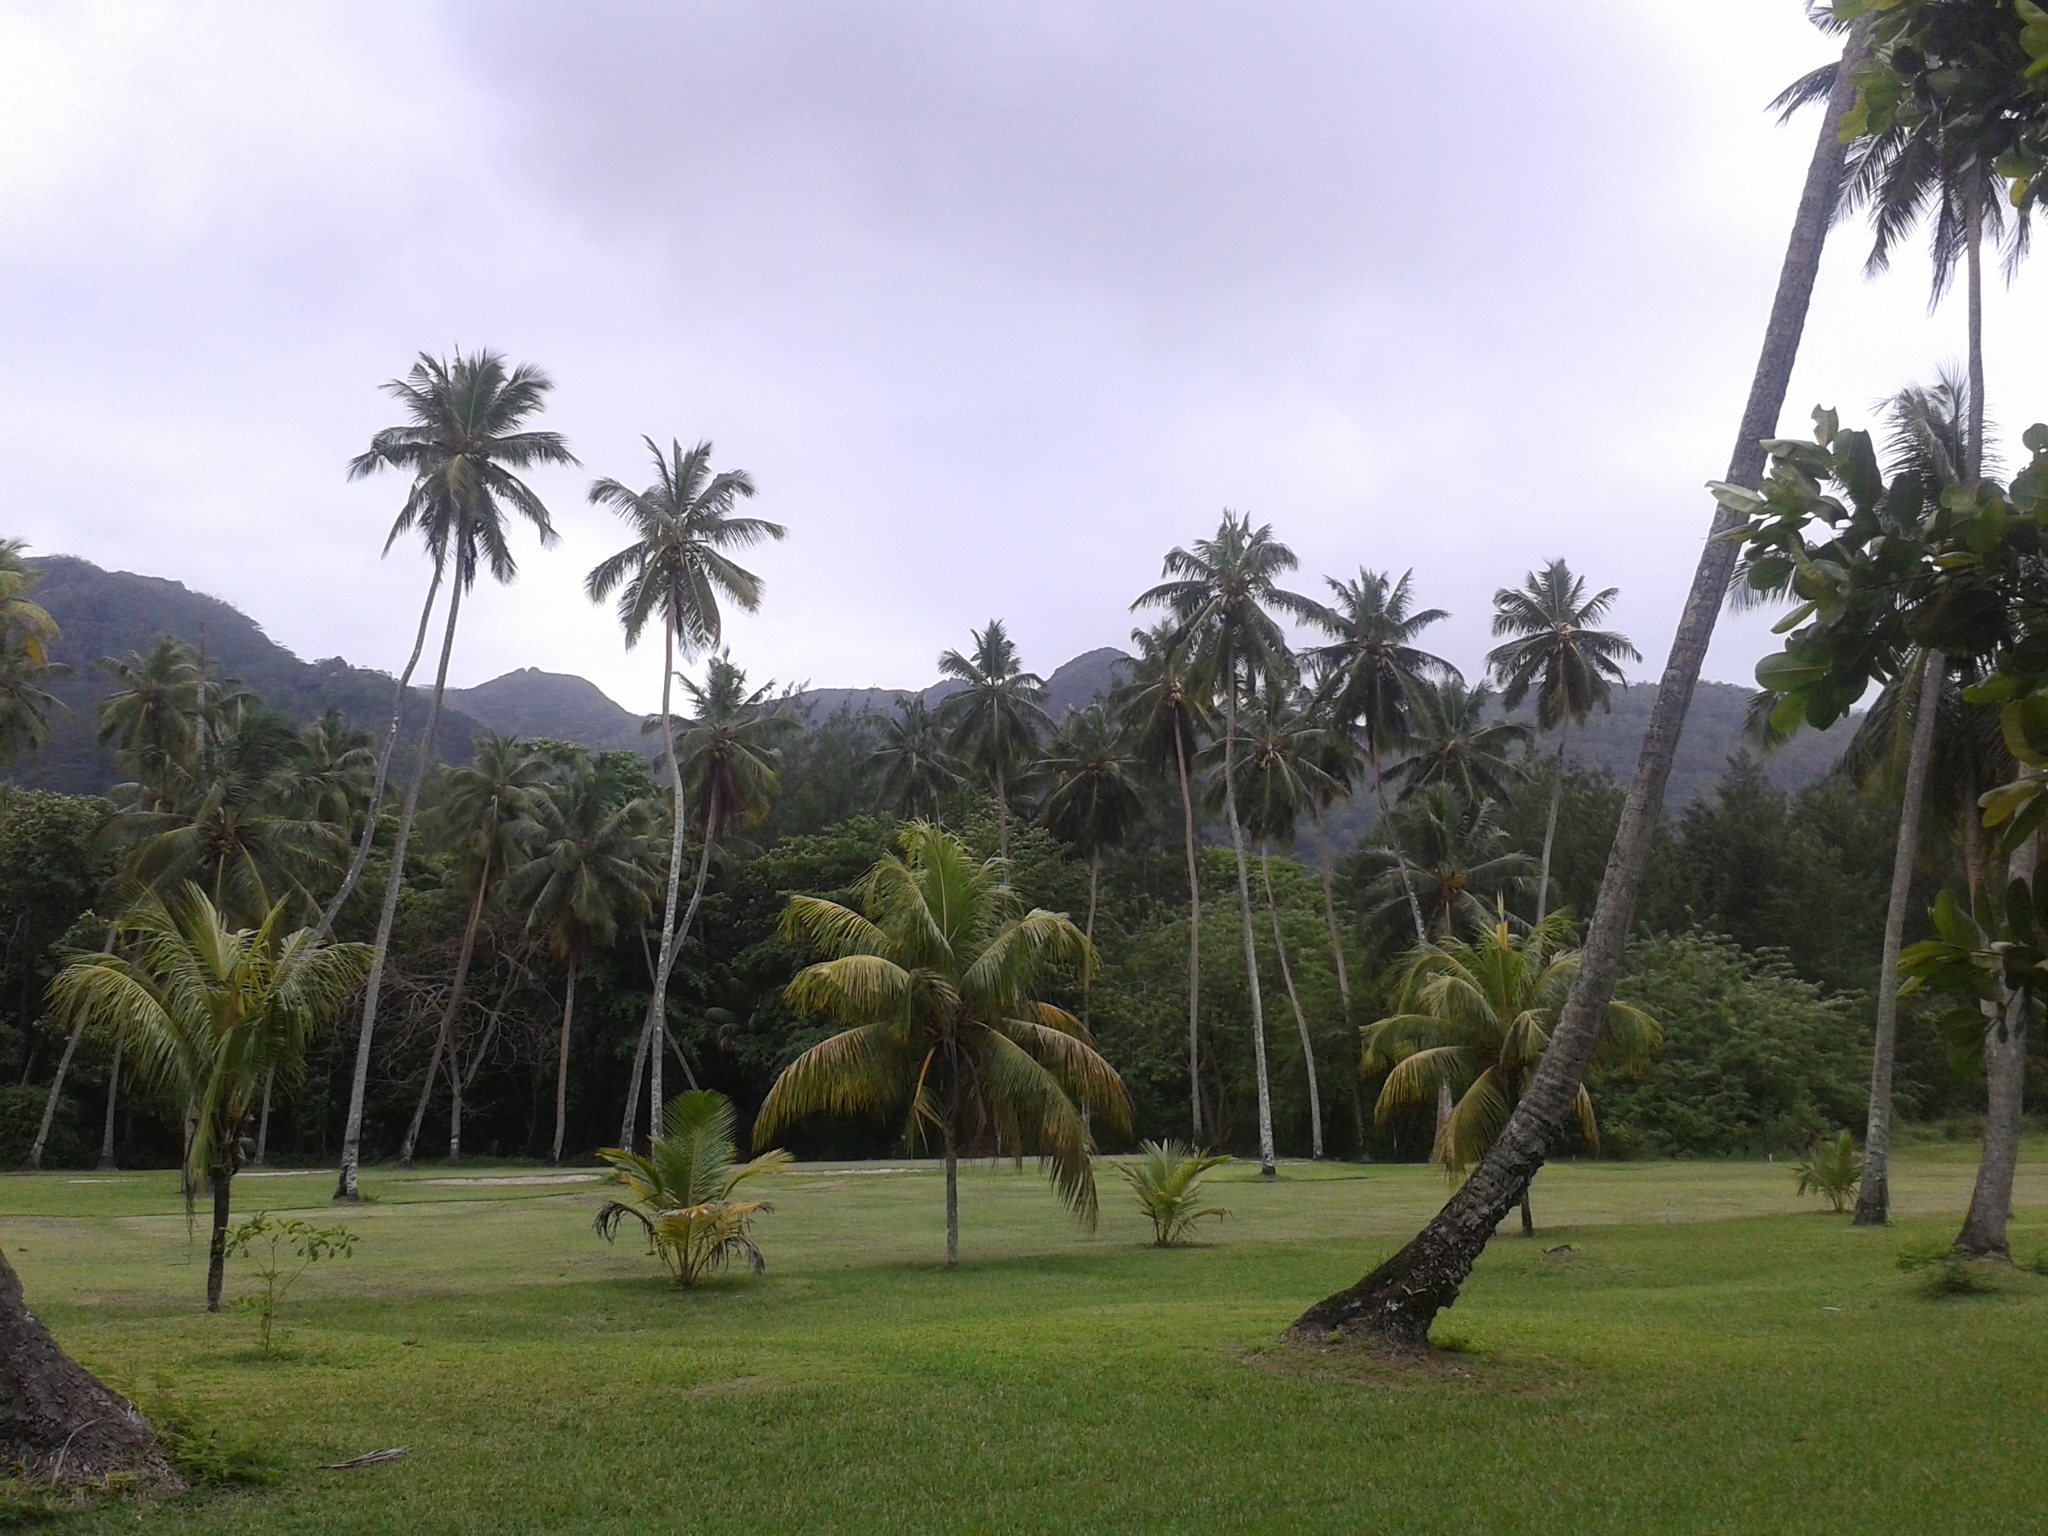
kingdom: Plantae
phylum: Tracheophyta
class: Liliopsida
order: Arecales
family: Arecaceae
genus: Cocos
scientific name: Cocos nucifera
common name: Coconut palm
